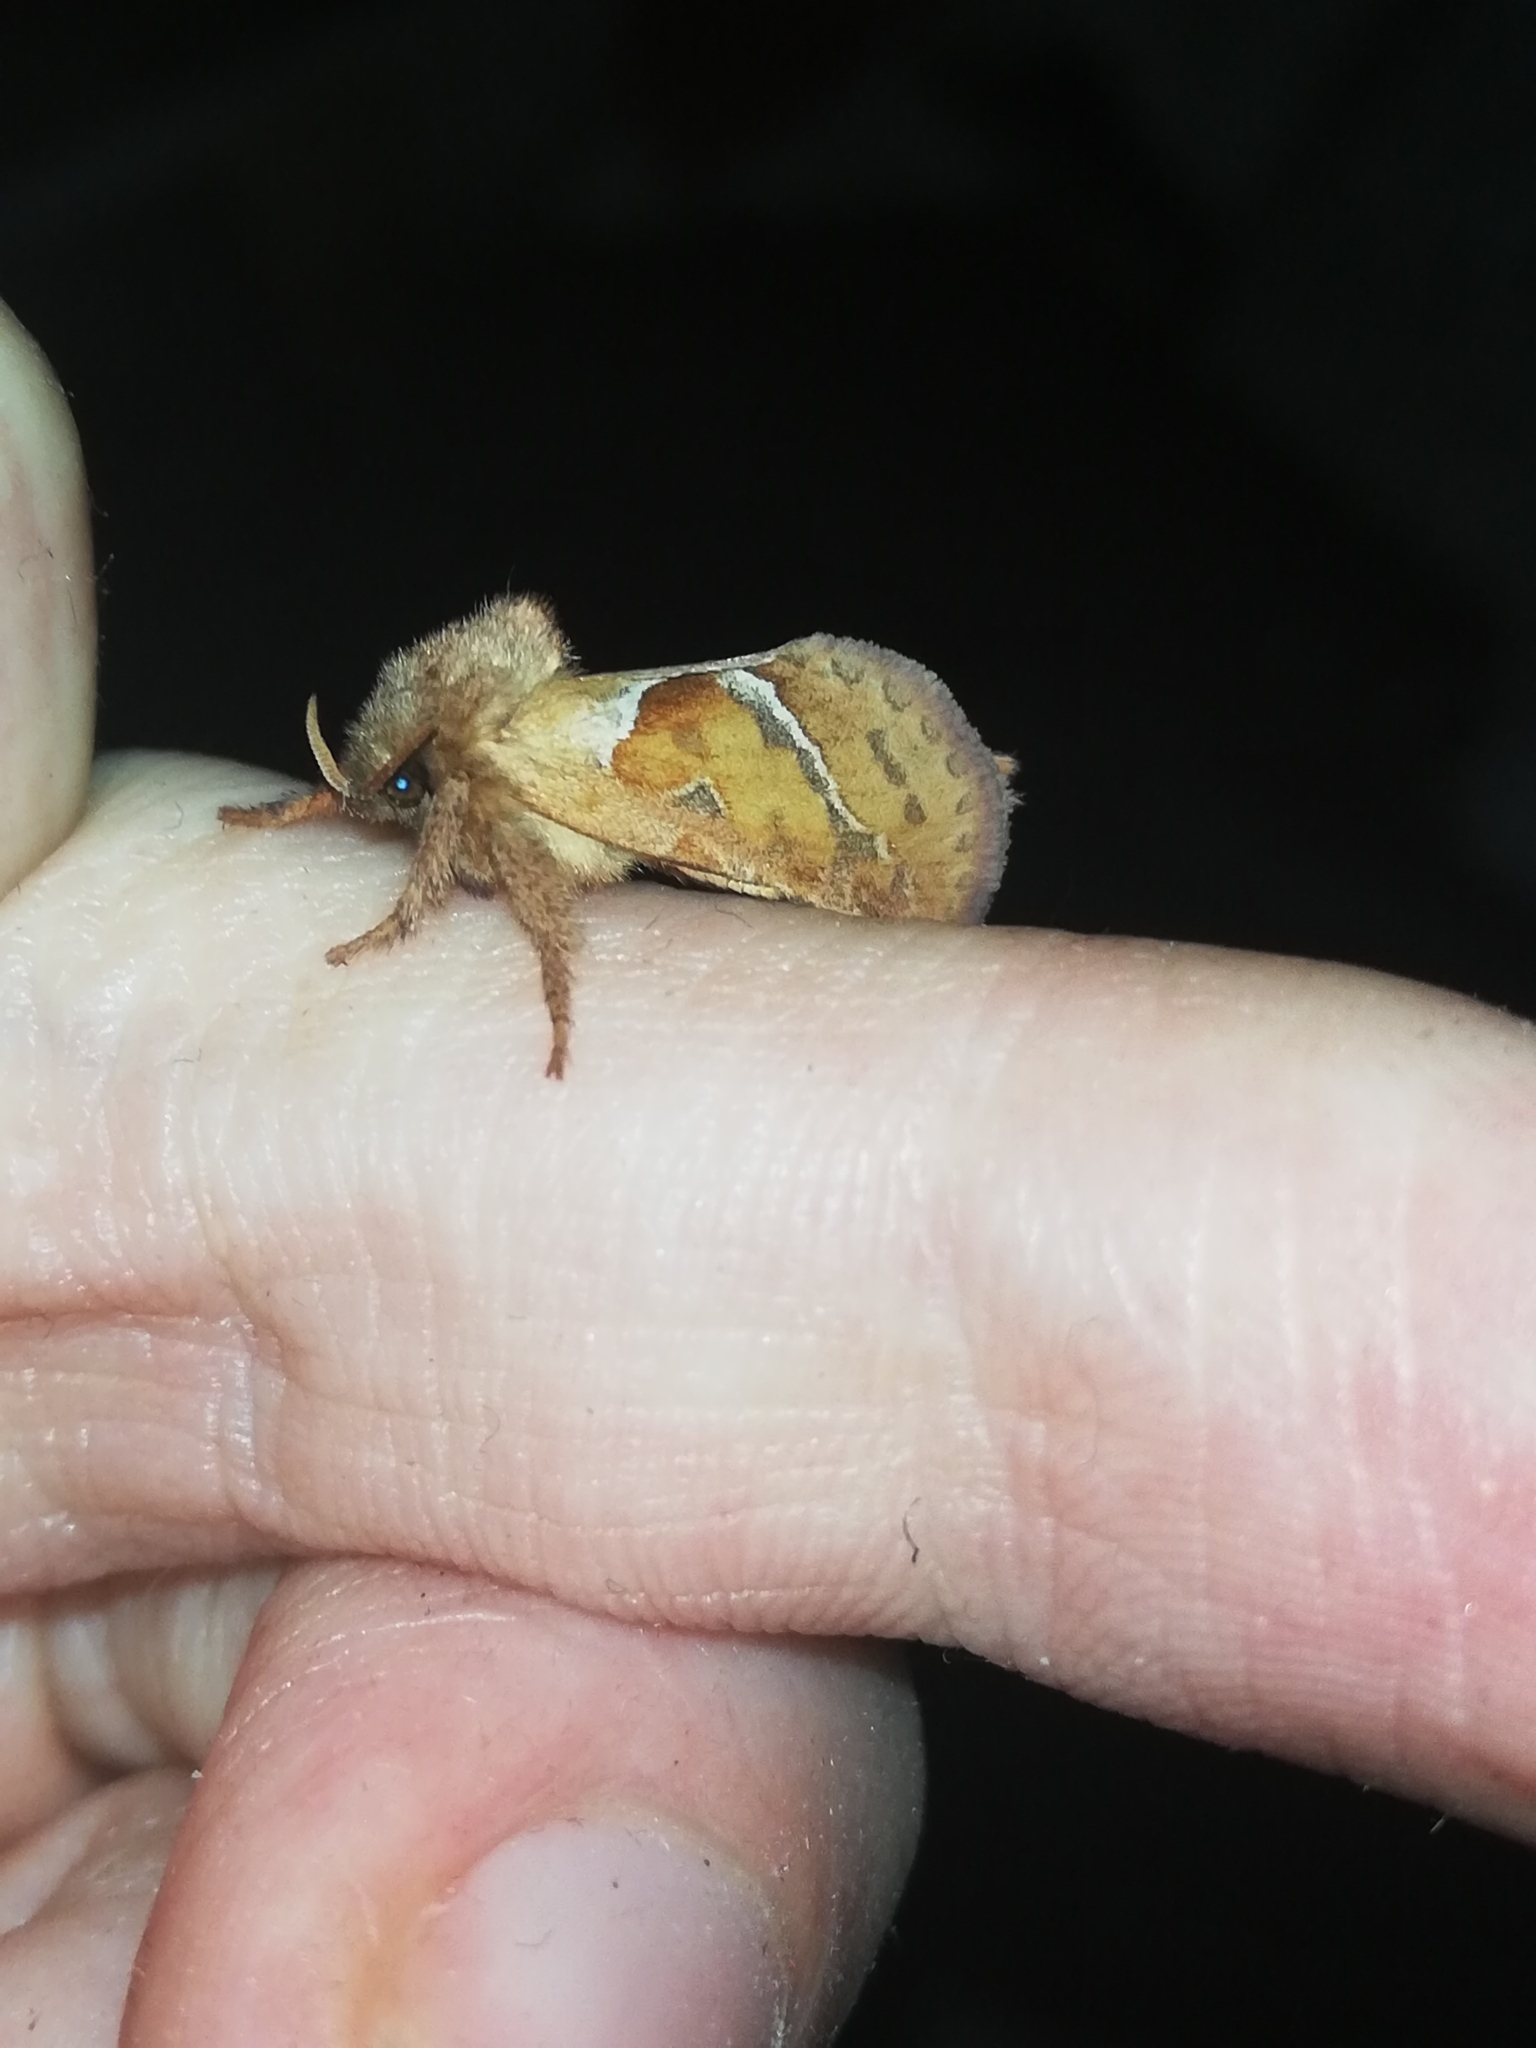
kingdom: Animalia
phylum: Arthropoda
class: Insecta
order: Lepidoptera
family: Hepialidae
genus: Triodia
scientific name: Triodia sylvina
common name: Orange swift
